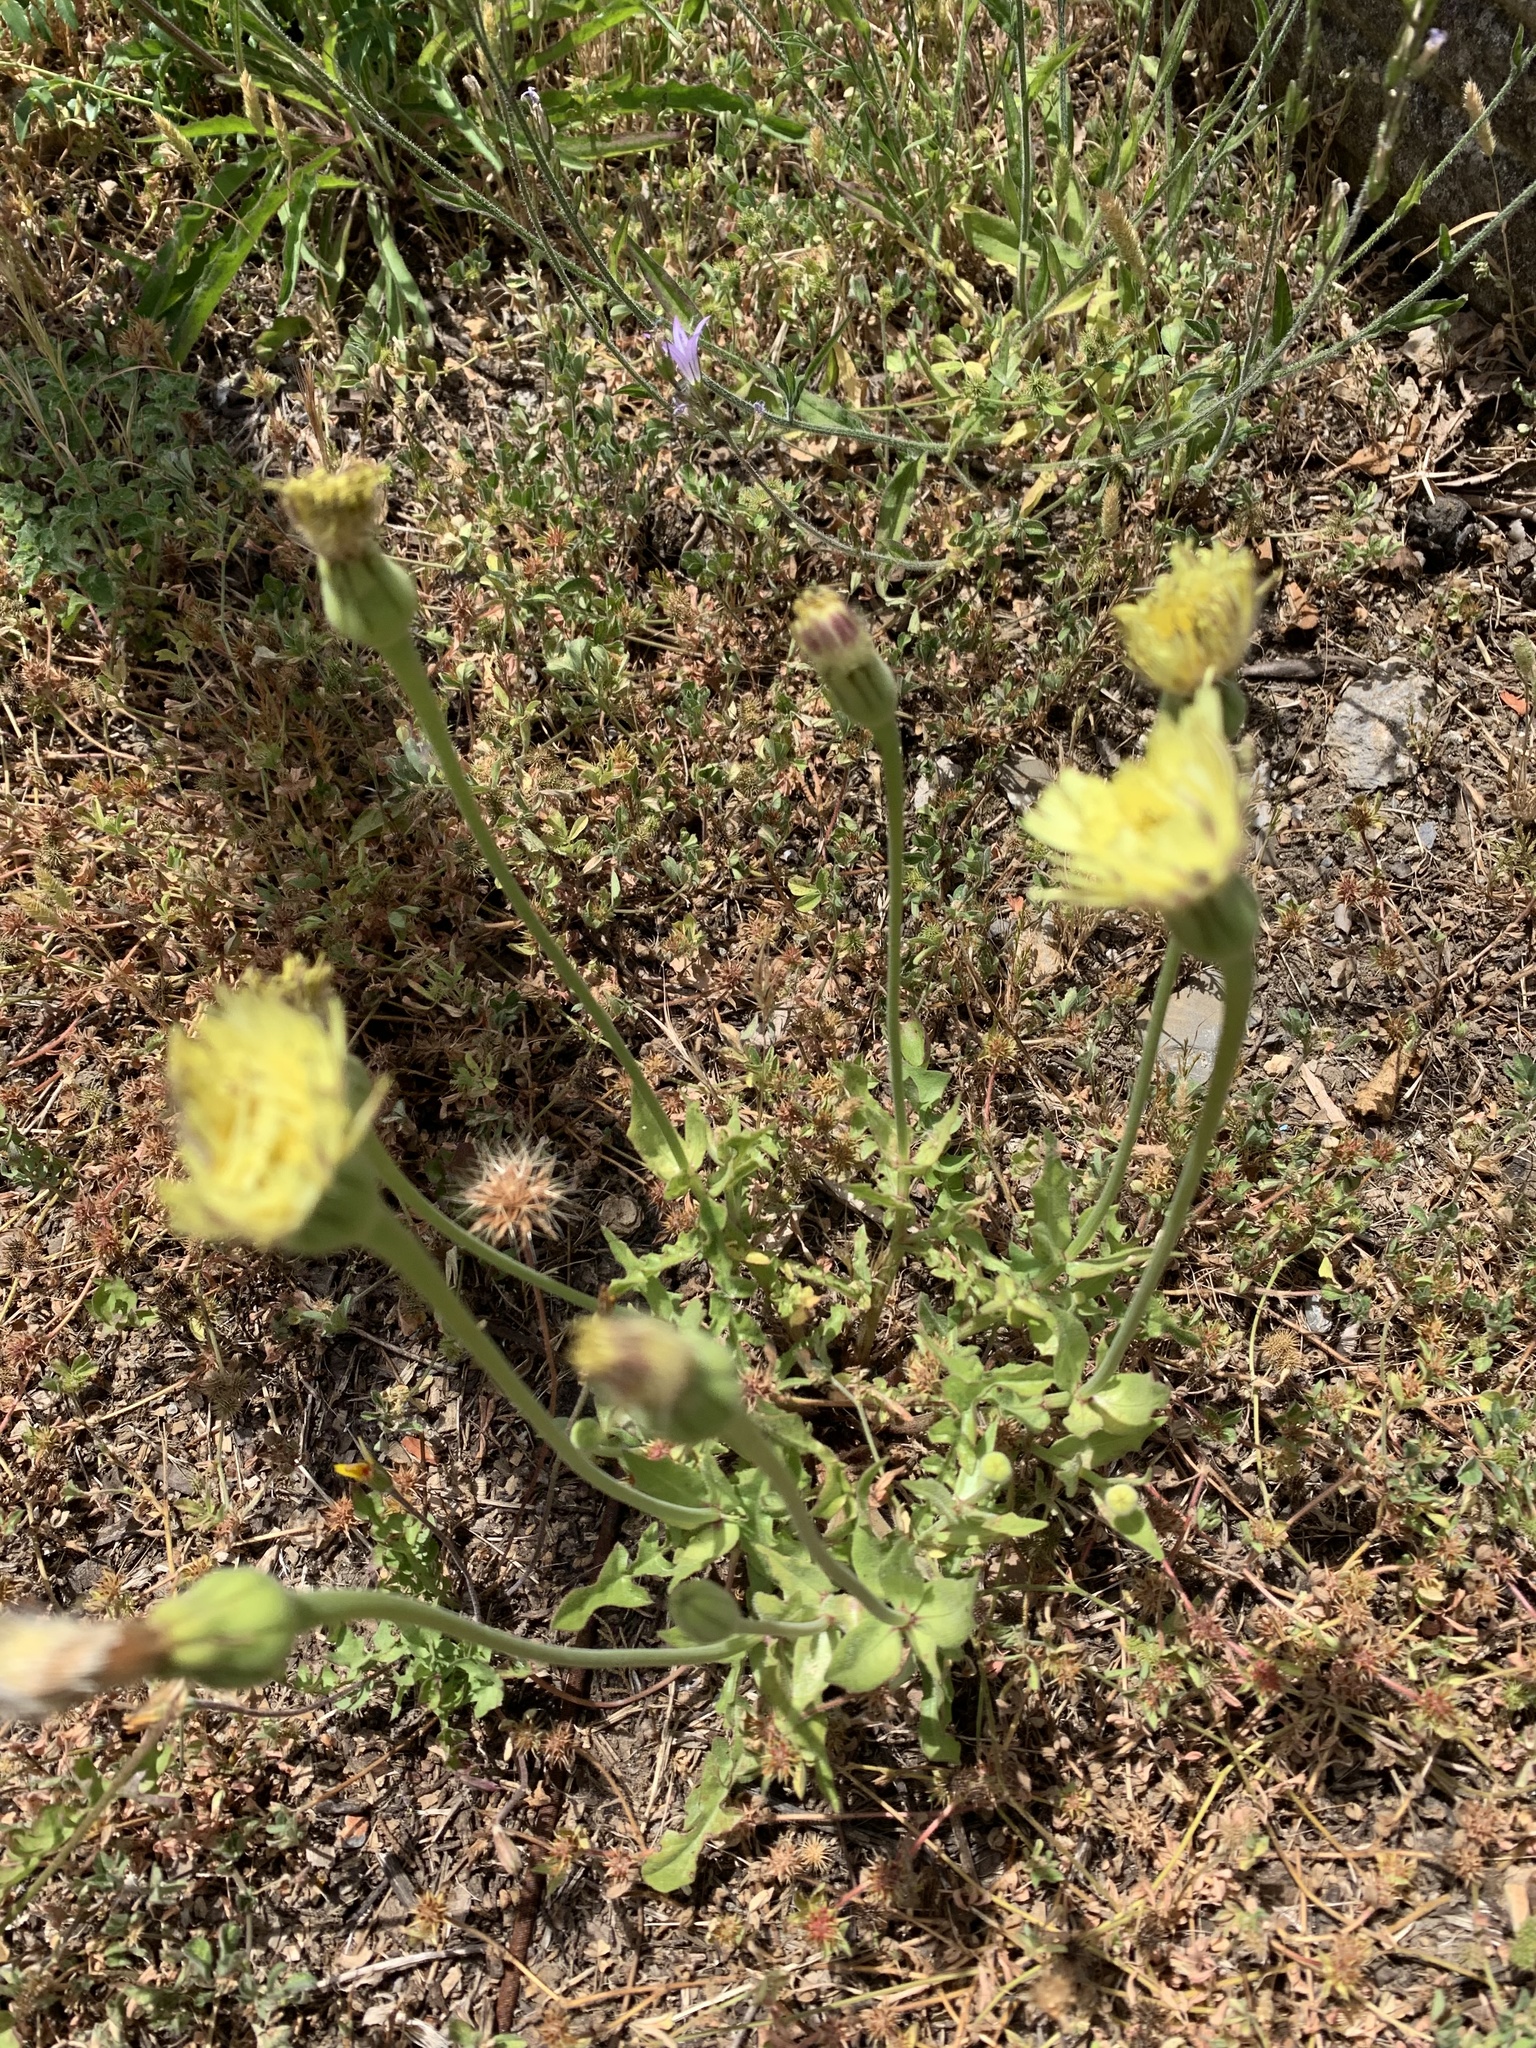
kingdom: Plantae
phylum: Tracheophyta
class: Magnoliopsida
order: Asterales
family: Asteraceae
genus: Urospermum
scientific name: Urospermum dalechampii
